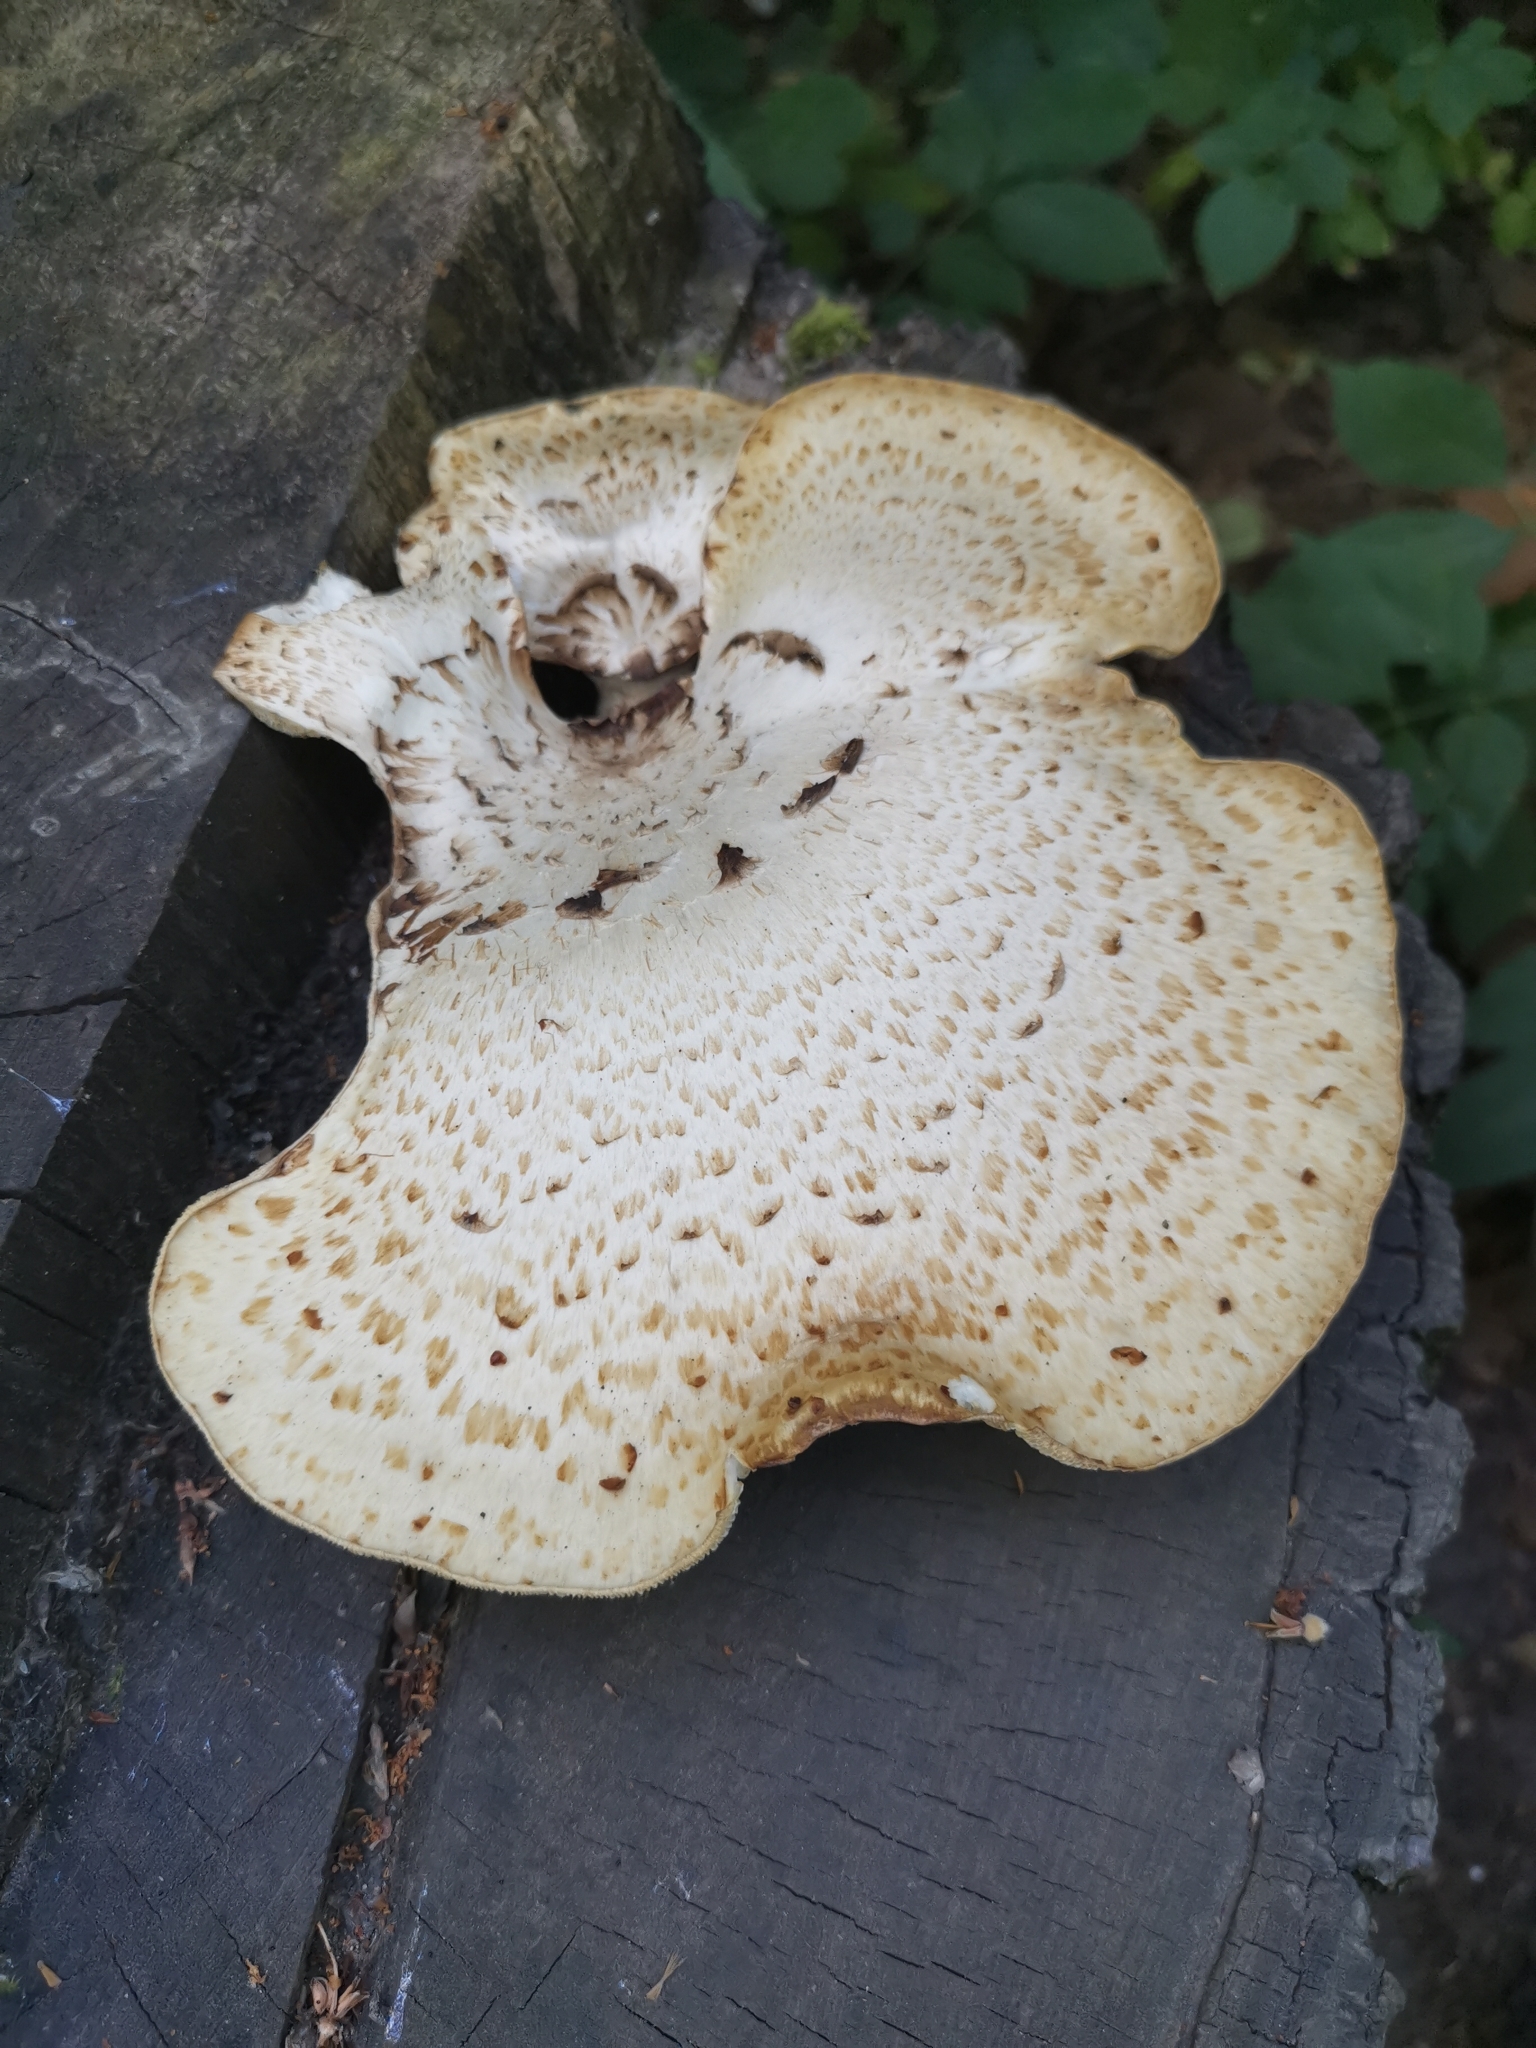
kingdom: Fungi
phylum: Basidiomycota
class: Agaricomycetes
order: Polyporales
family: Polyporaceae
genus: Cerioporus
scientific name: Cerioporus squamosus
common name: Dryad's saddle
